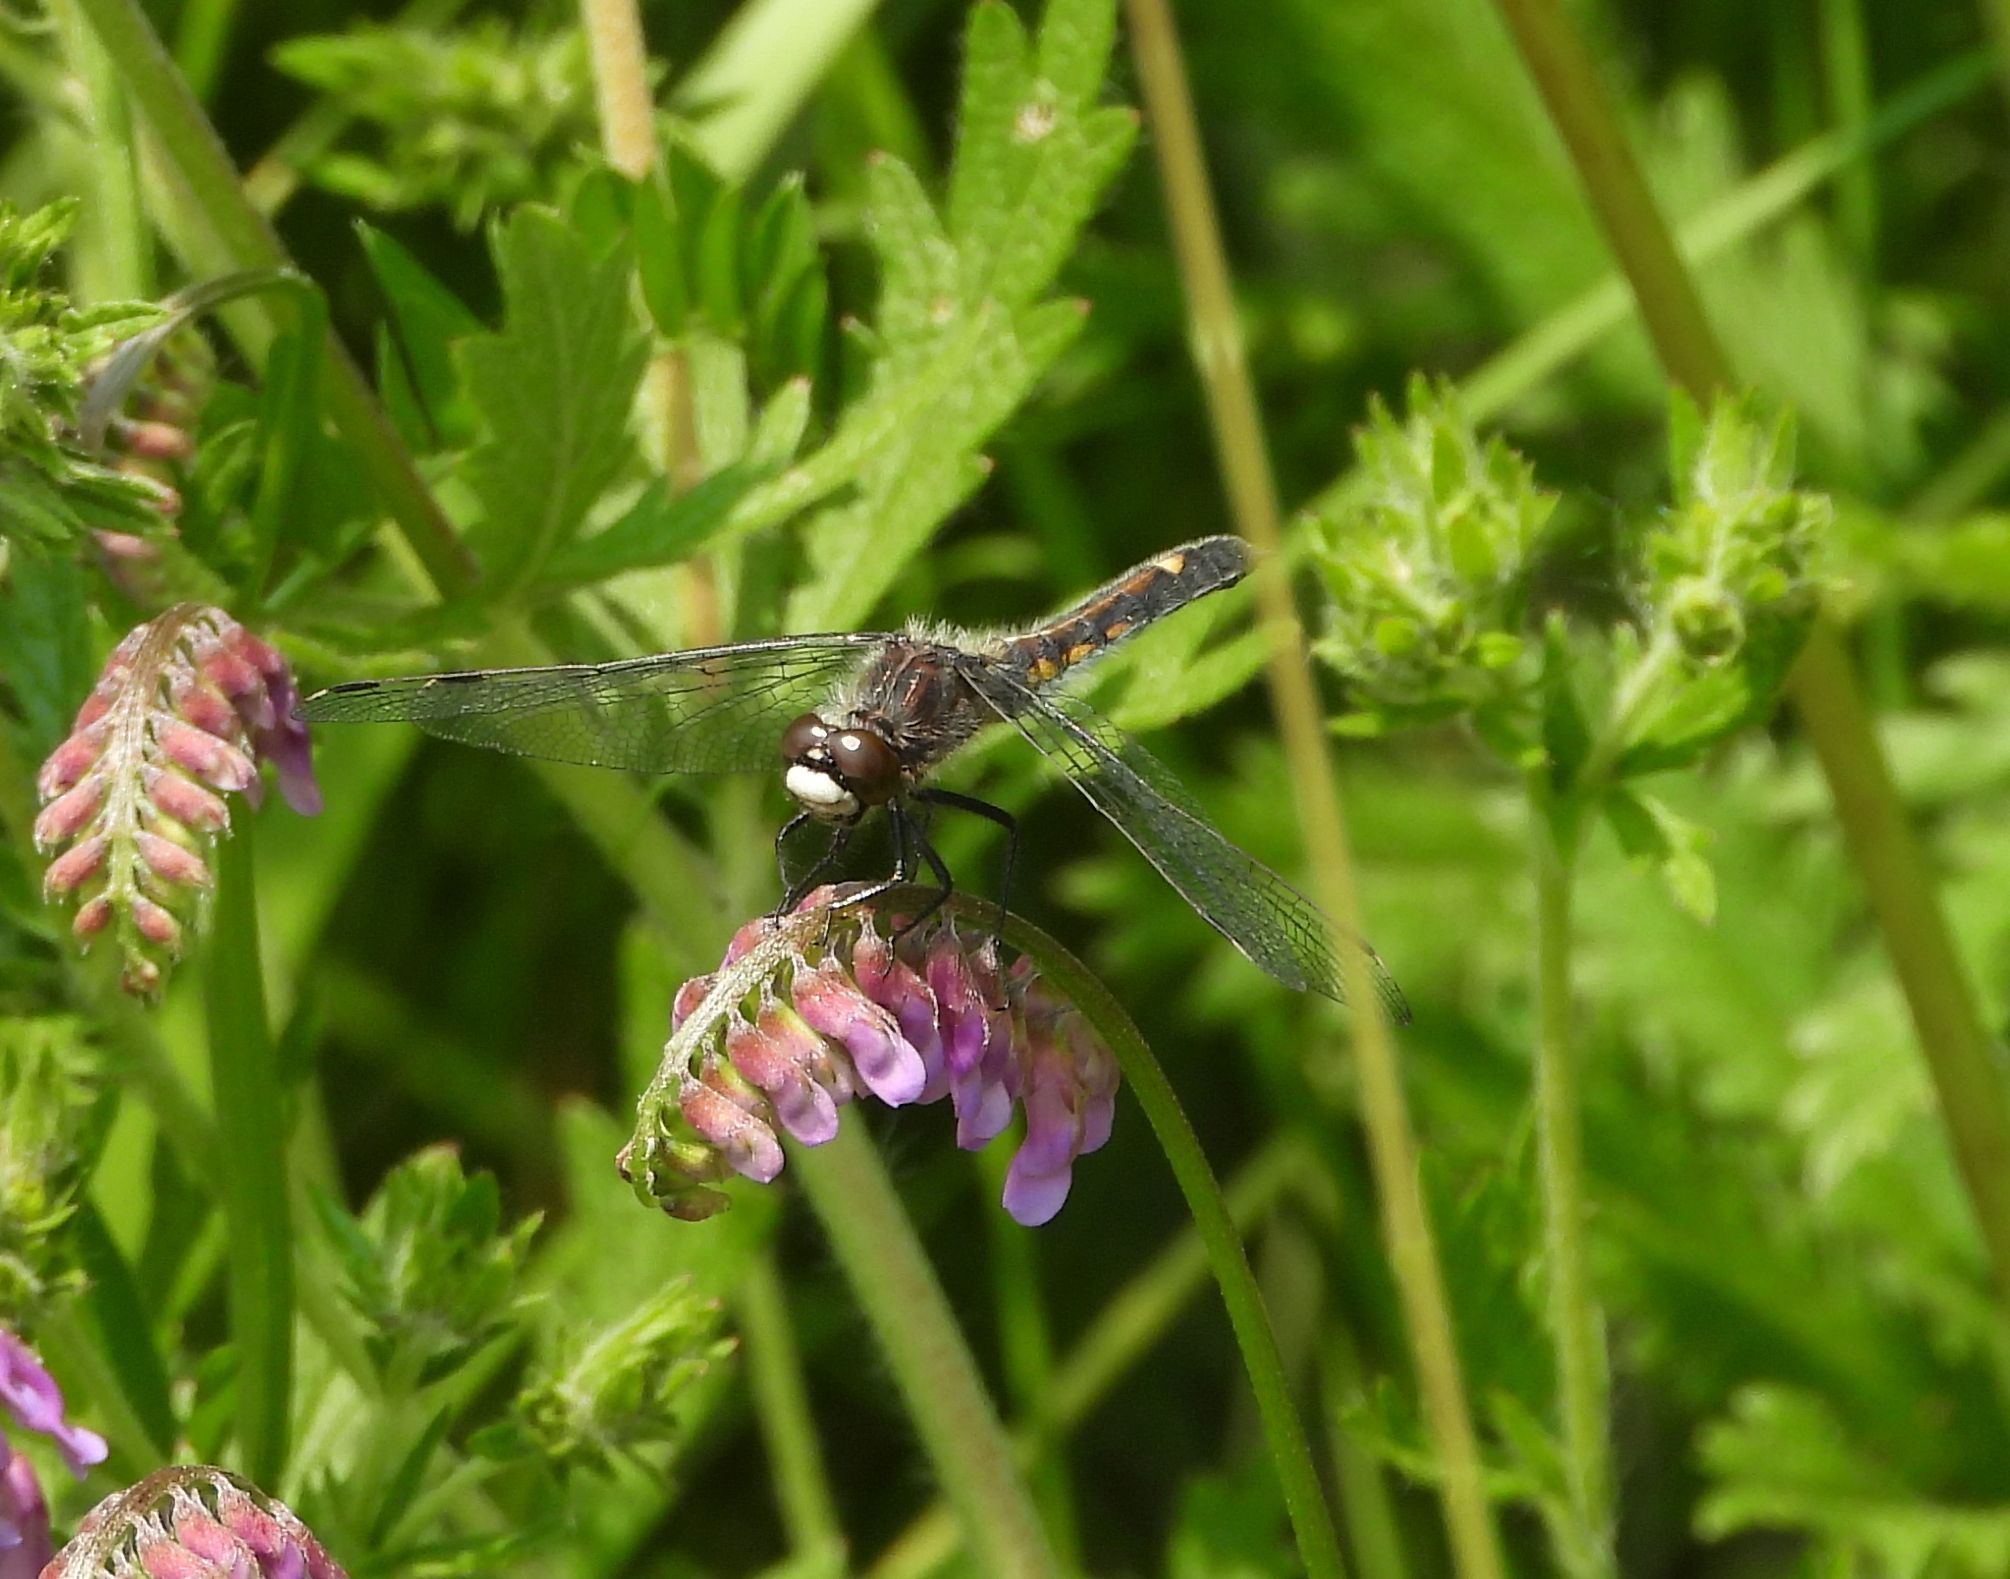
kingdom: Animalia
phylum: Arthropoda
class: Insecta
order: Odonata
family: Libellulidae
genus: Leucorrhinia
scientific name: Leucorrhinia intacta
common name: Dot-tailed whiteface
